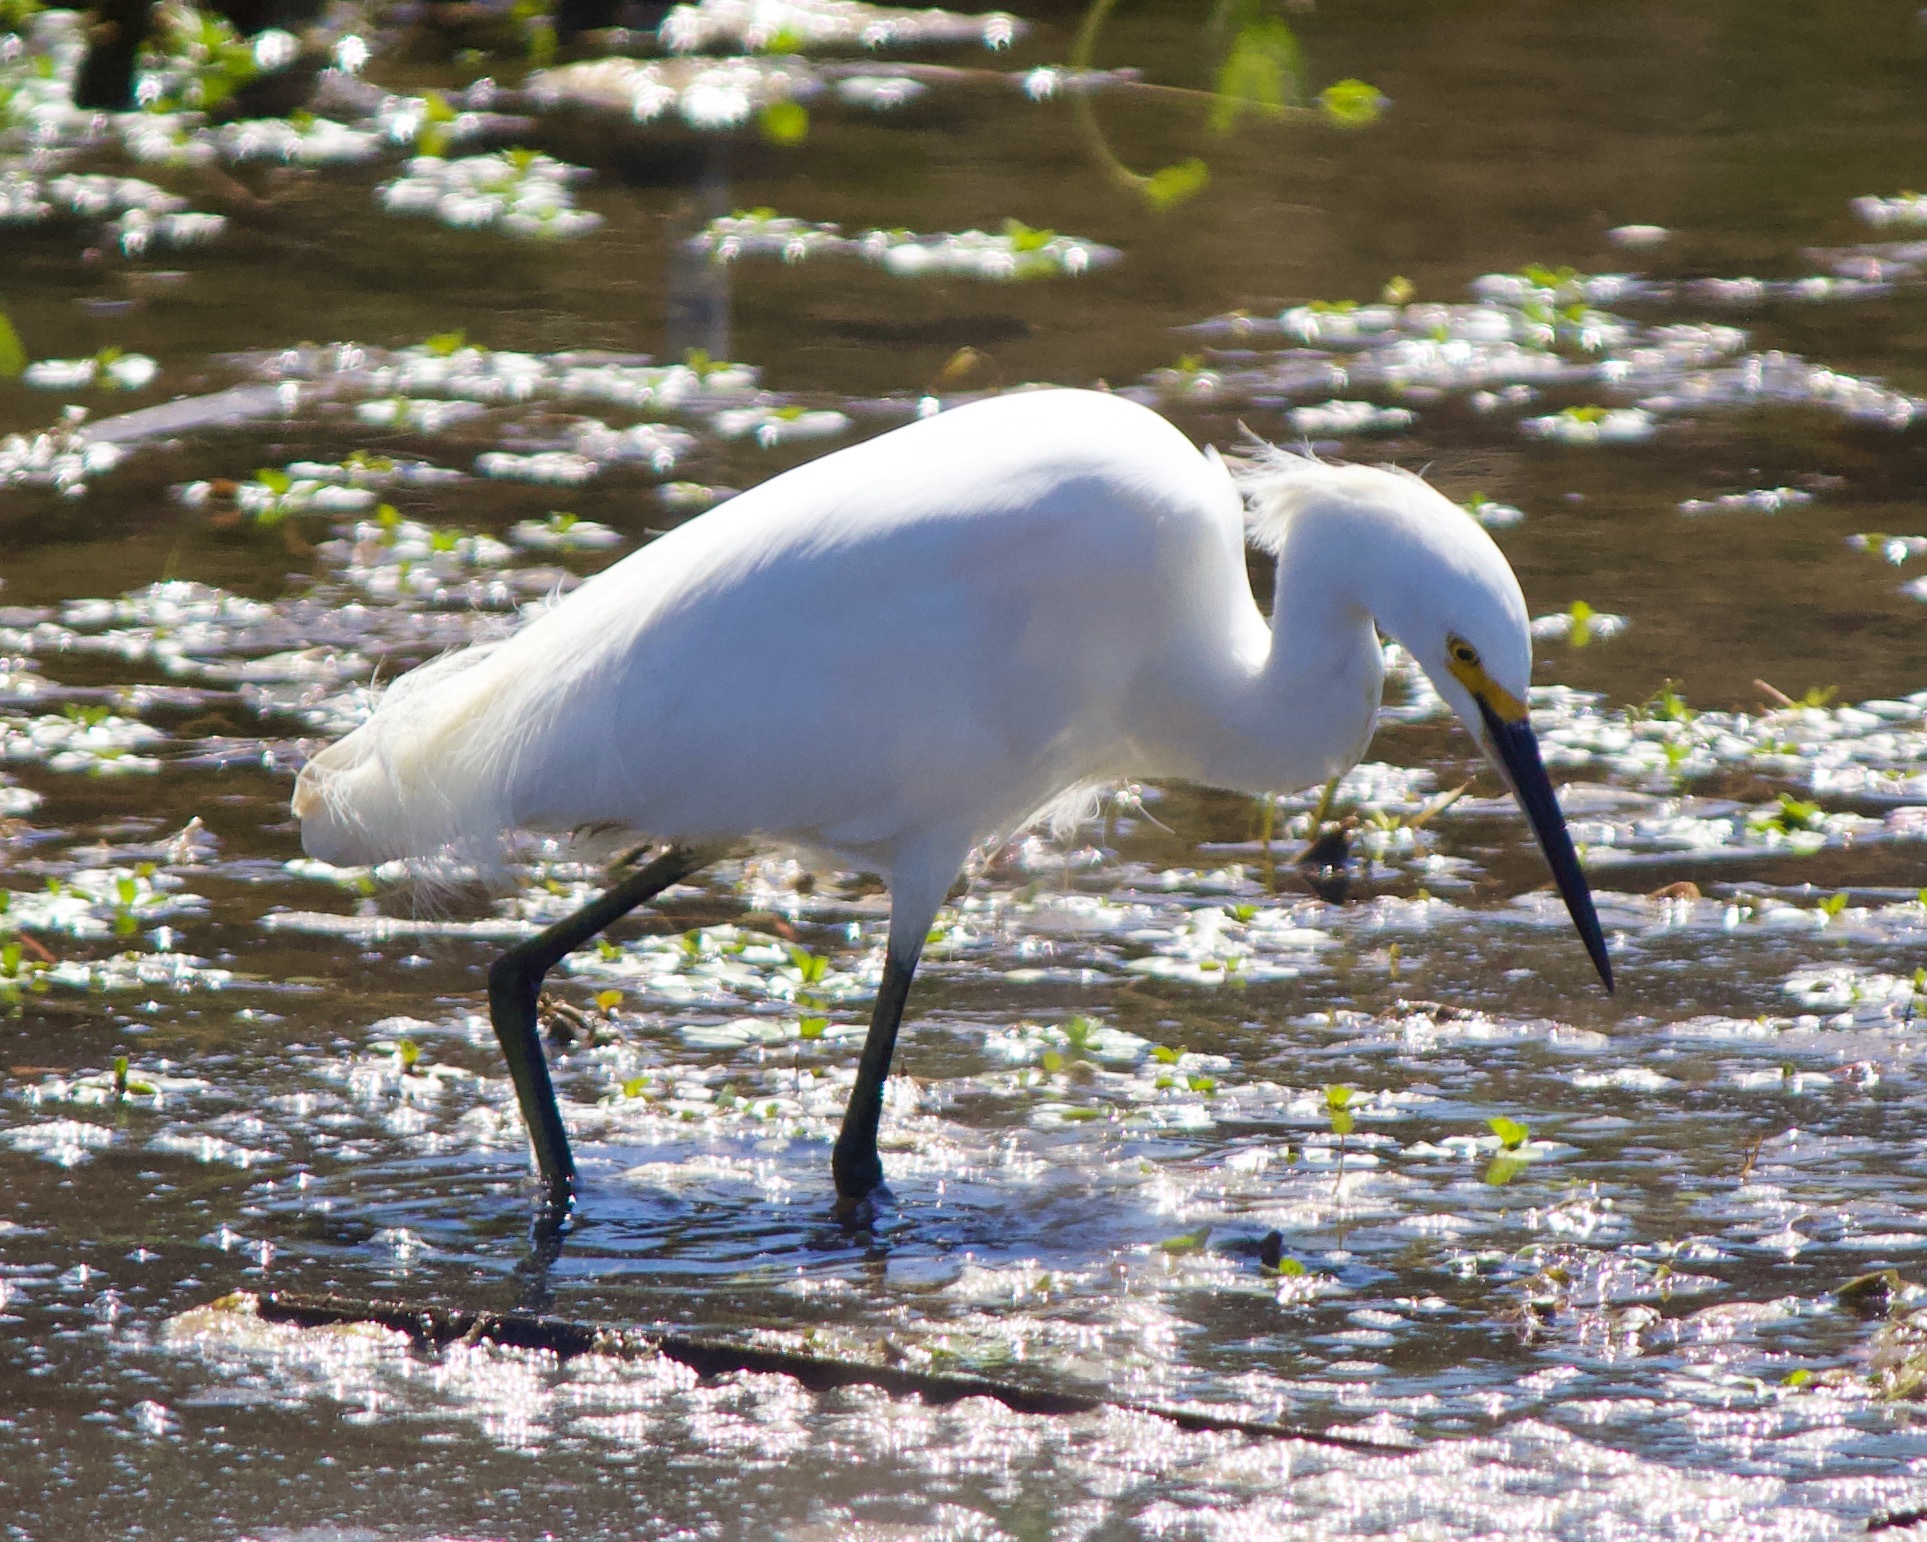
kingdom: Animalia
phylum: Chordata
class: Aves
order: Pelecaniformes
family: Ardeidae
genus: Egretta
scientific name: Egretta thula
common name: Snowy egret
